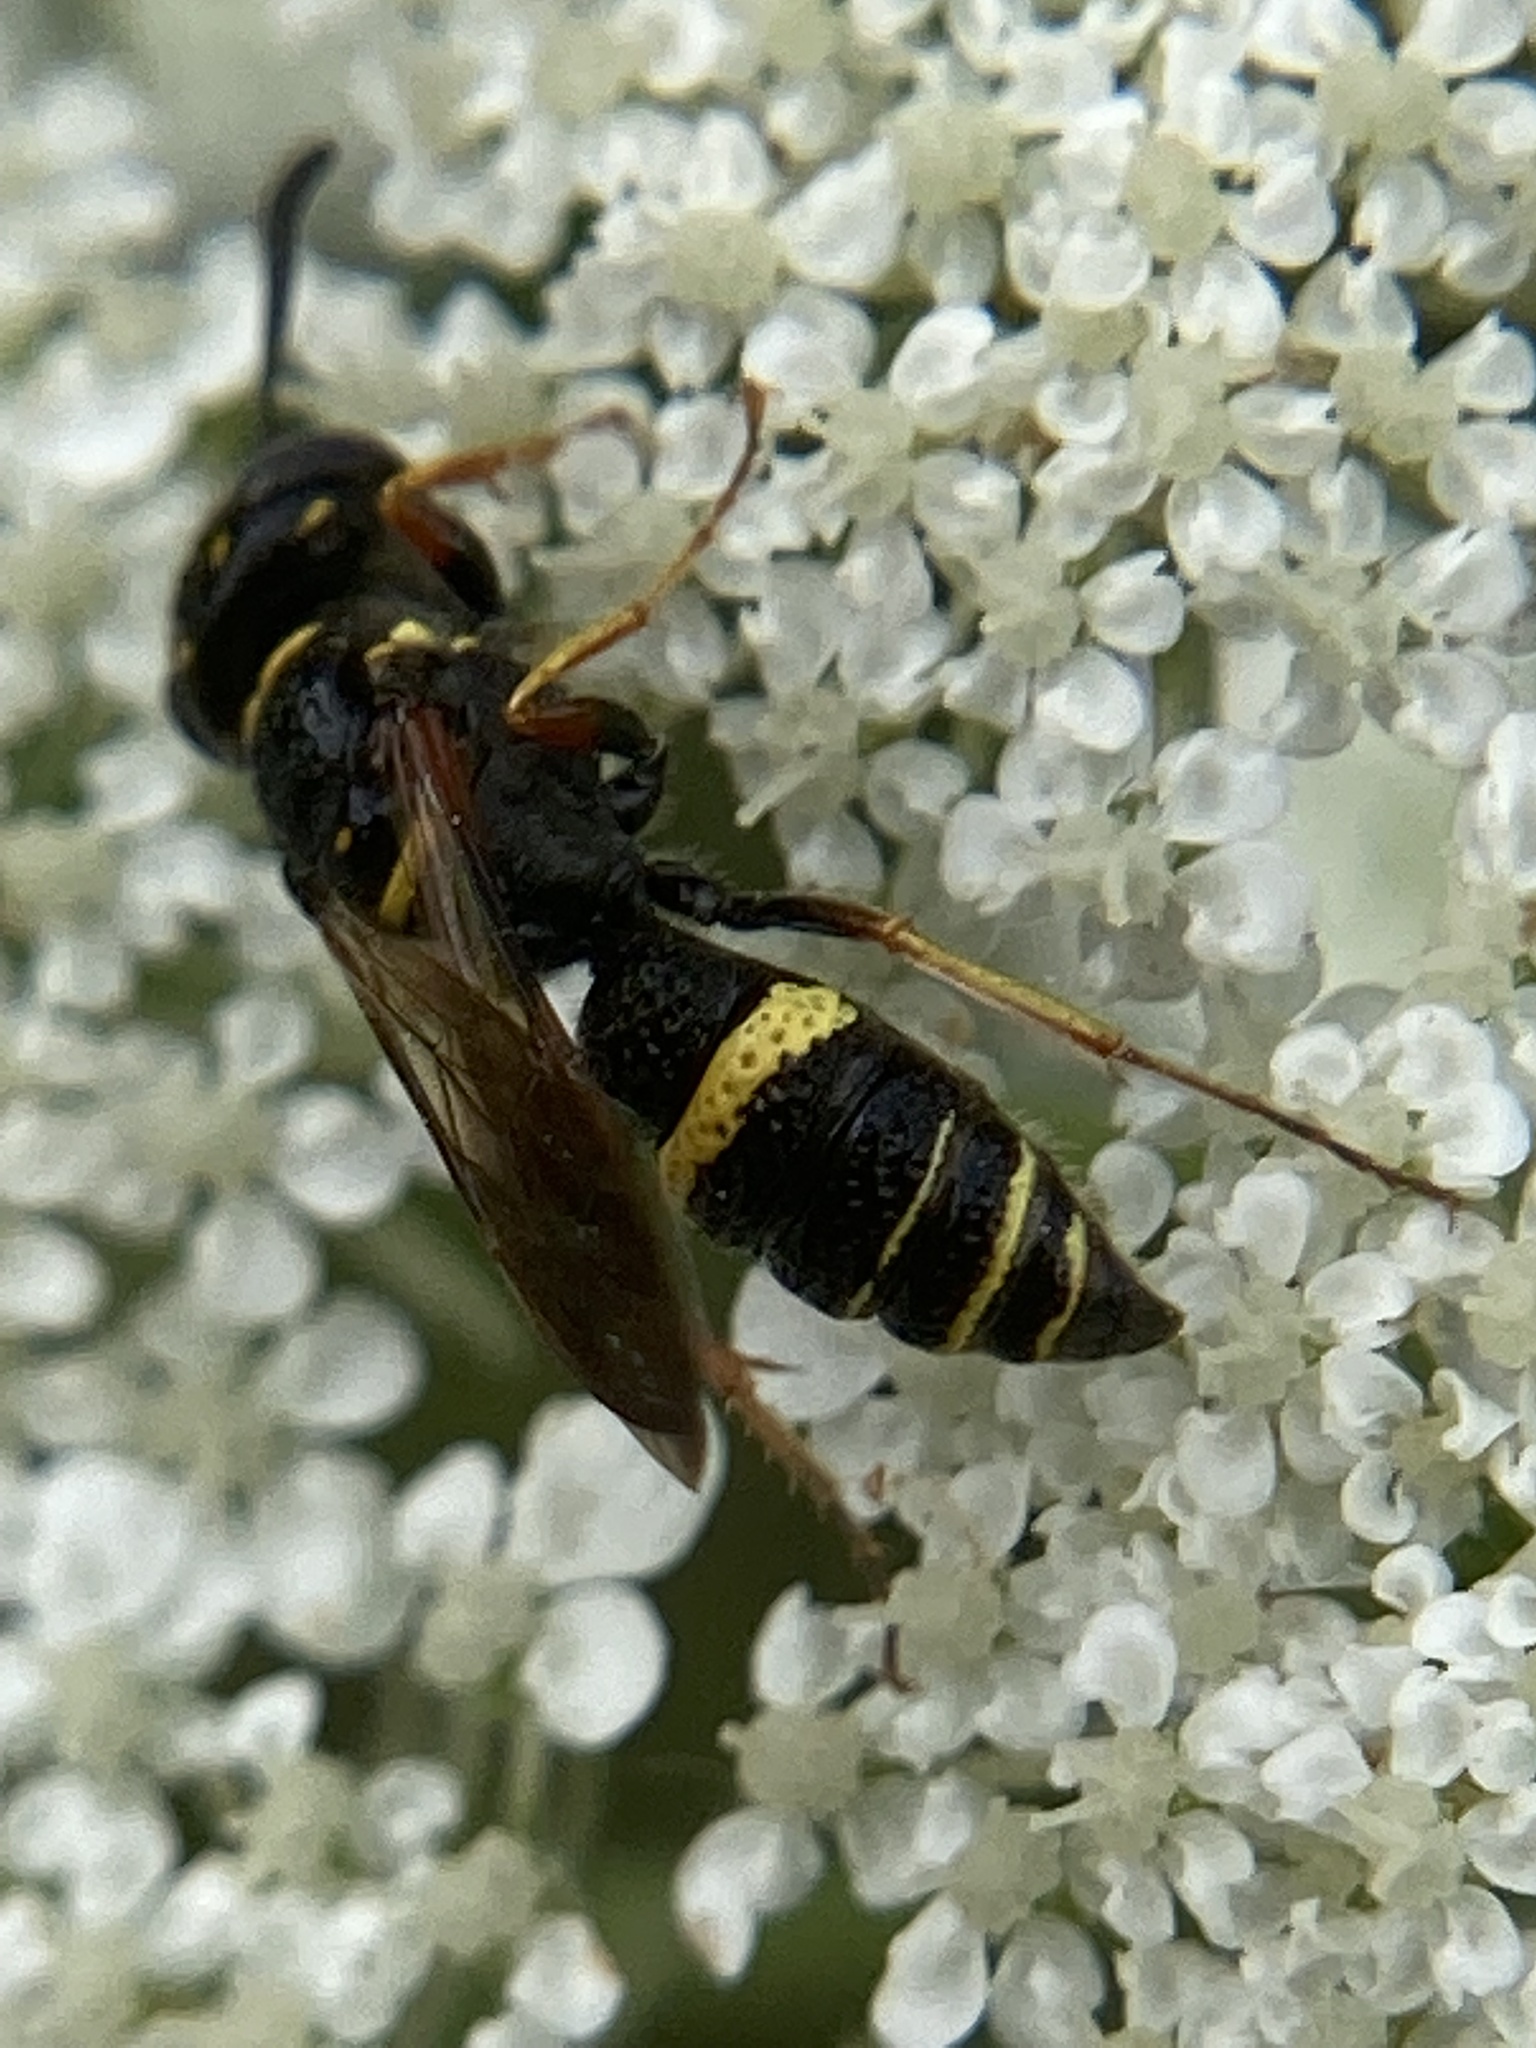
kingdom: Animalia
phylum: Arthropoda
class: Insecta
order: Hymenoptera
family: Crabronidae
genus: Philanthus
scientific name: Philanthus gibbosus
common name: Humped beewolf
